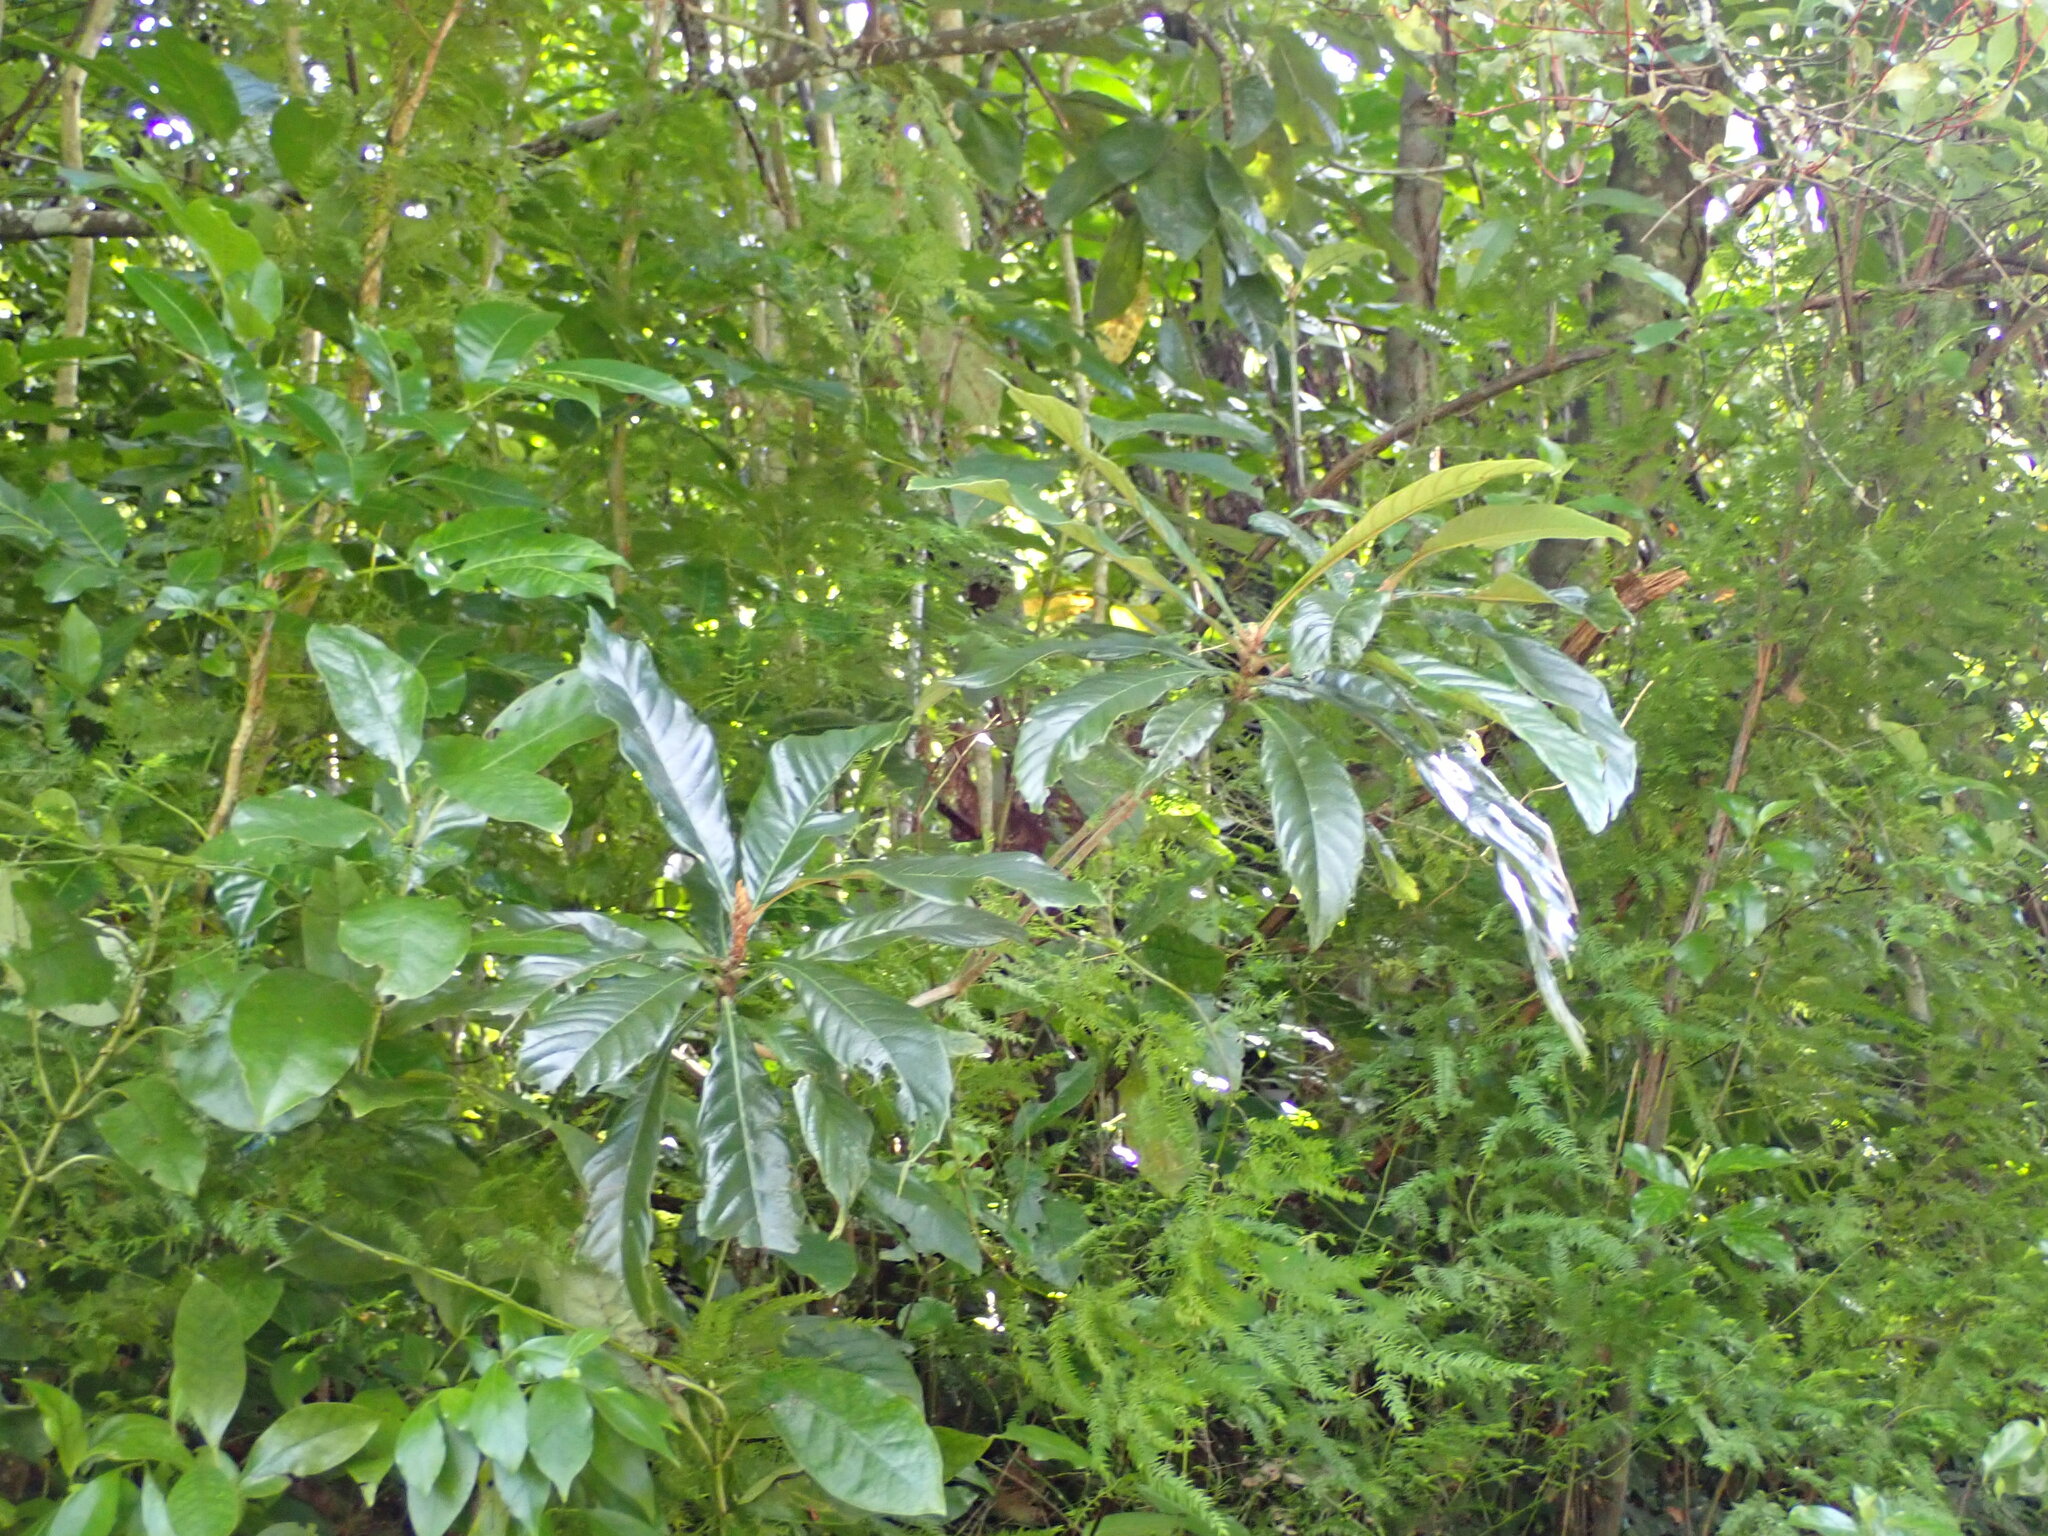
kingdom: Plantae
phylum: Tracheophyta
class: Magnoliopsida
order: Rosales
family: Rosaceae
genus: Rhaphiolepis
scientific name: Rhaphiolepis bibas
